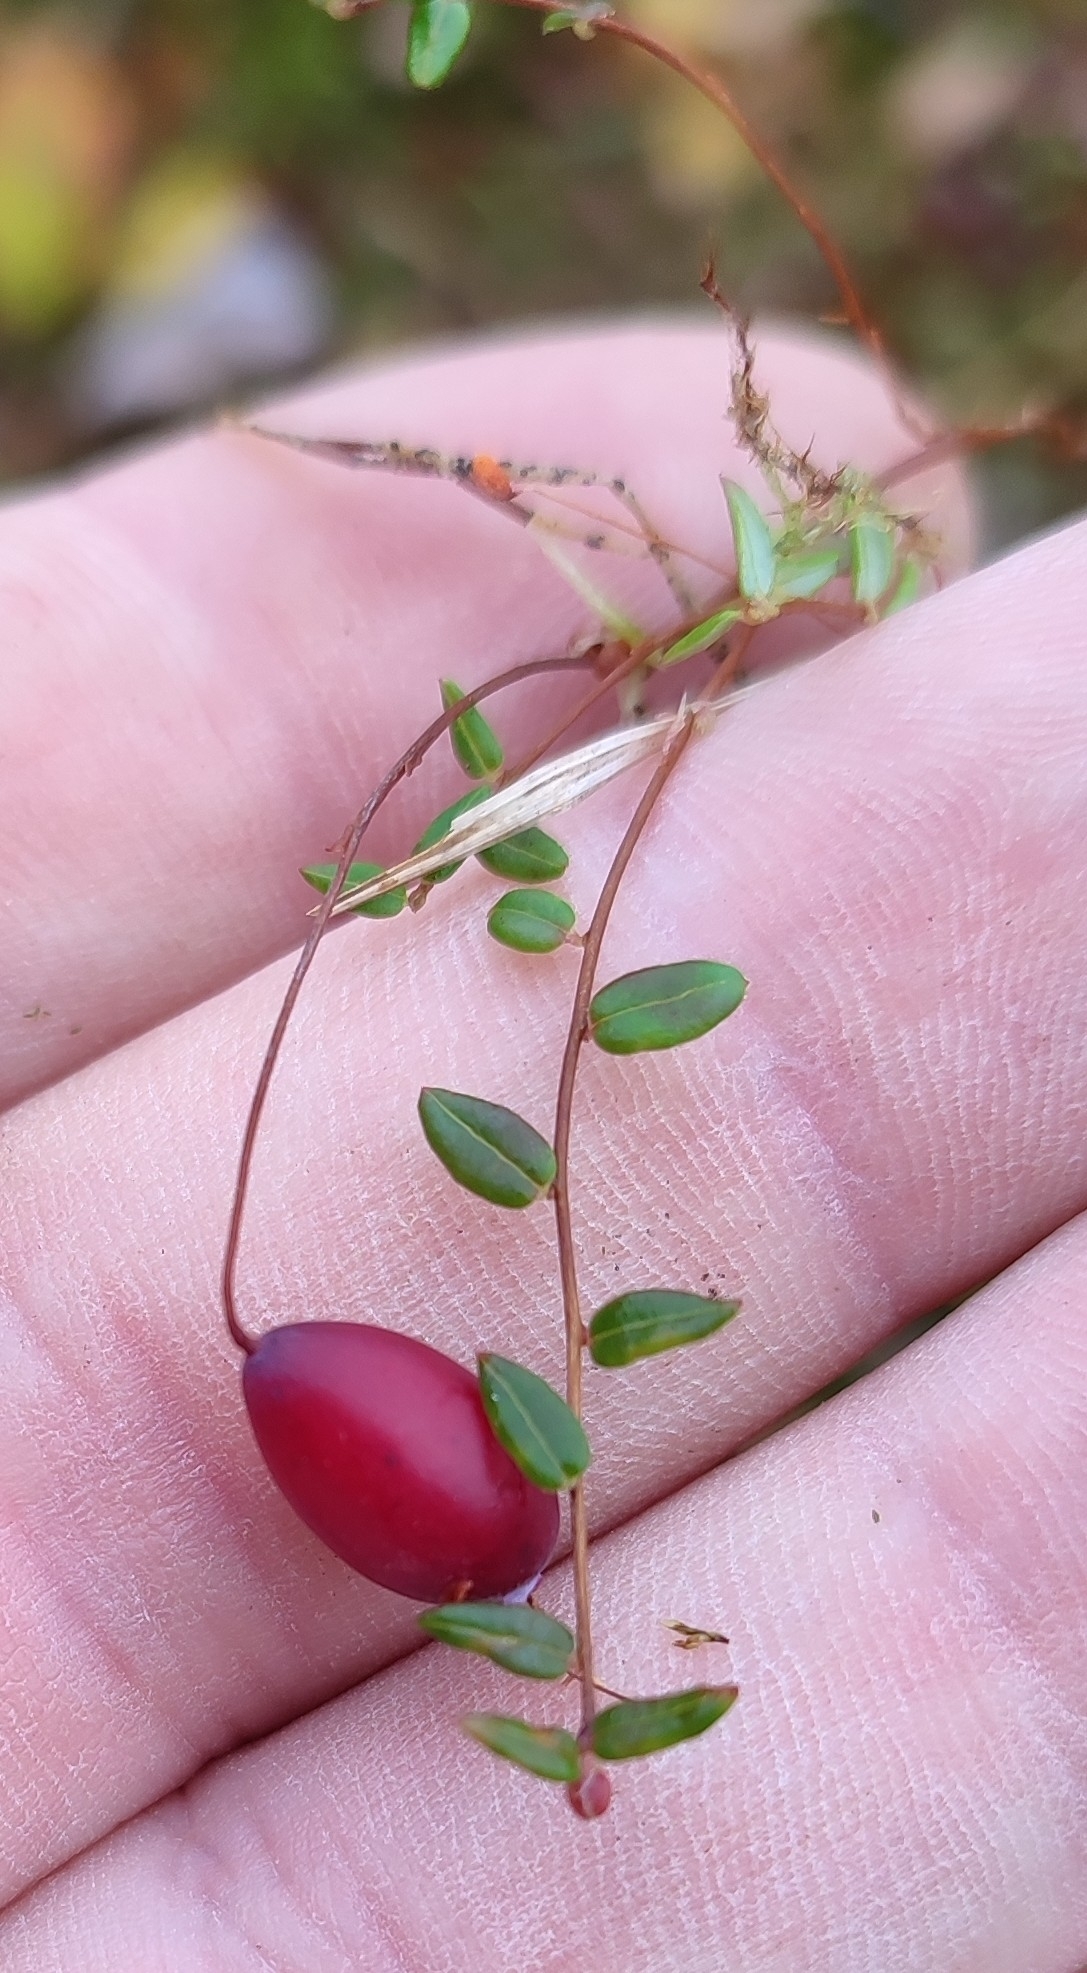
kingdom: Plantae
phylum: Tracheophyta
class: Magnoliopsida
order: Ericales
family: Ericaceae
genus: Vaccinium
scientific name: Vaccinium oxycoccos
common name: Cranberry
